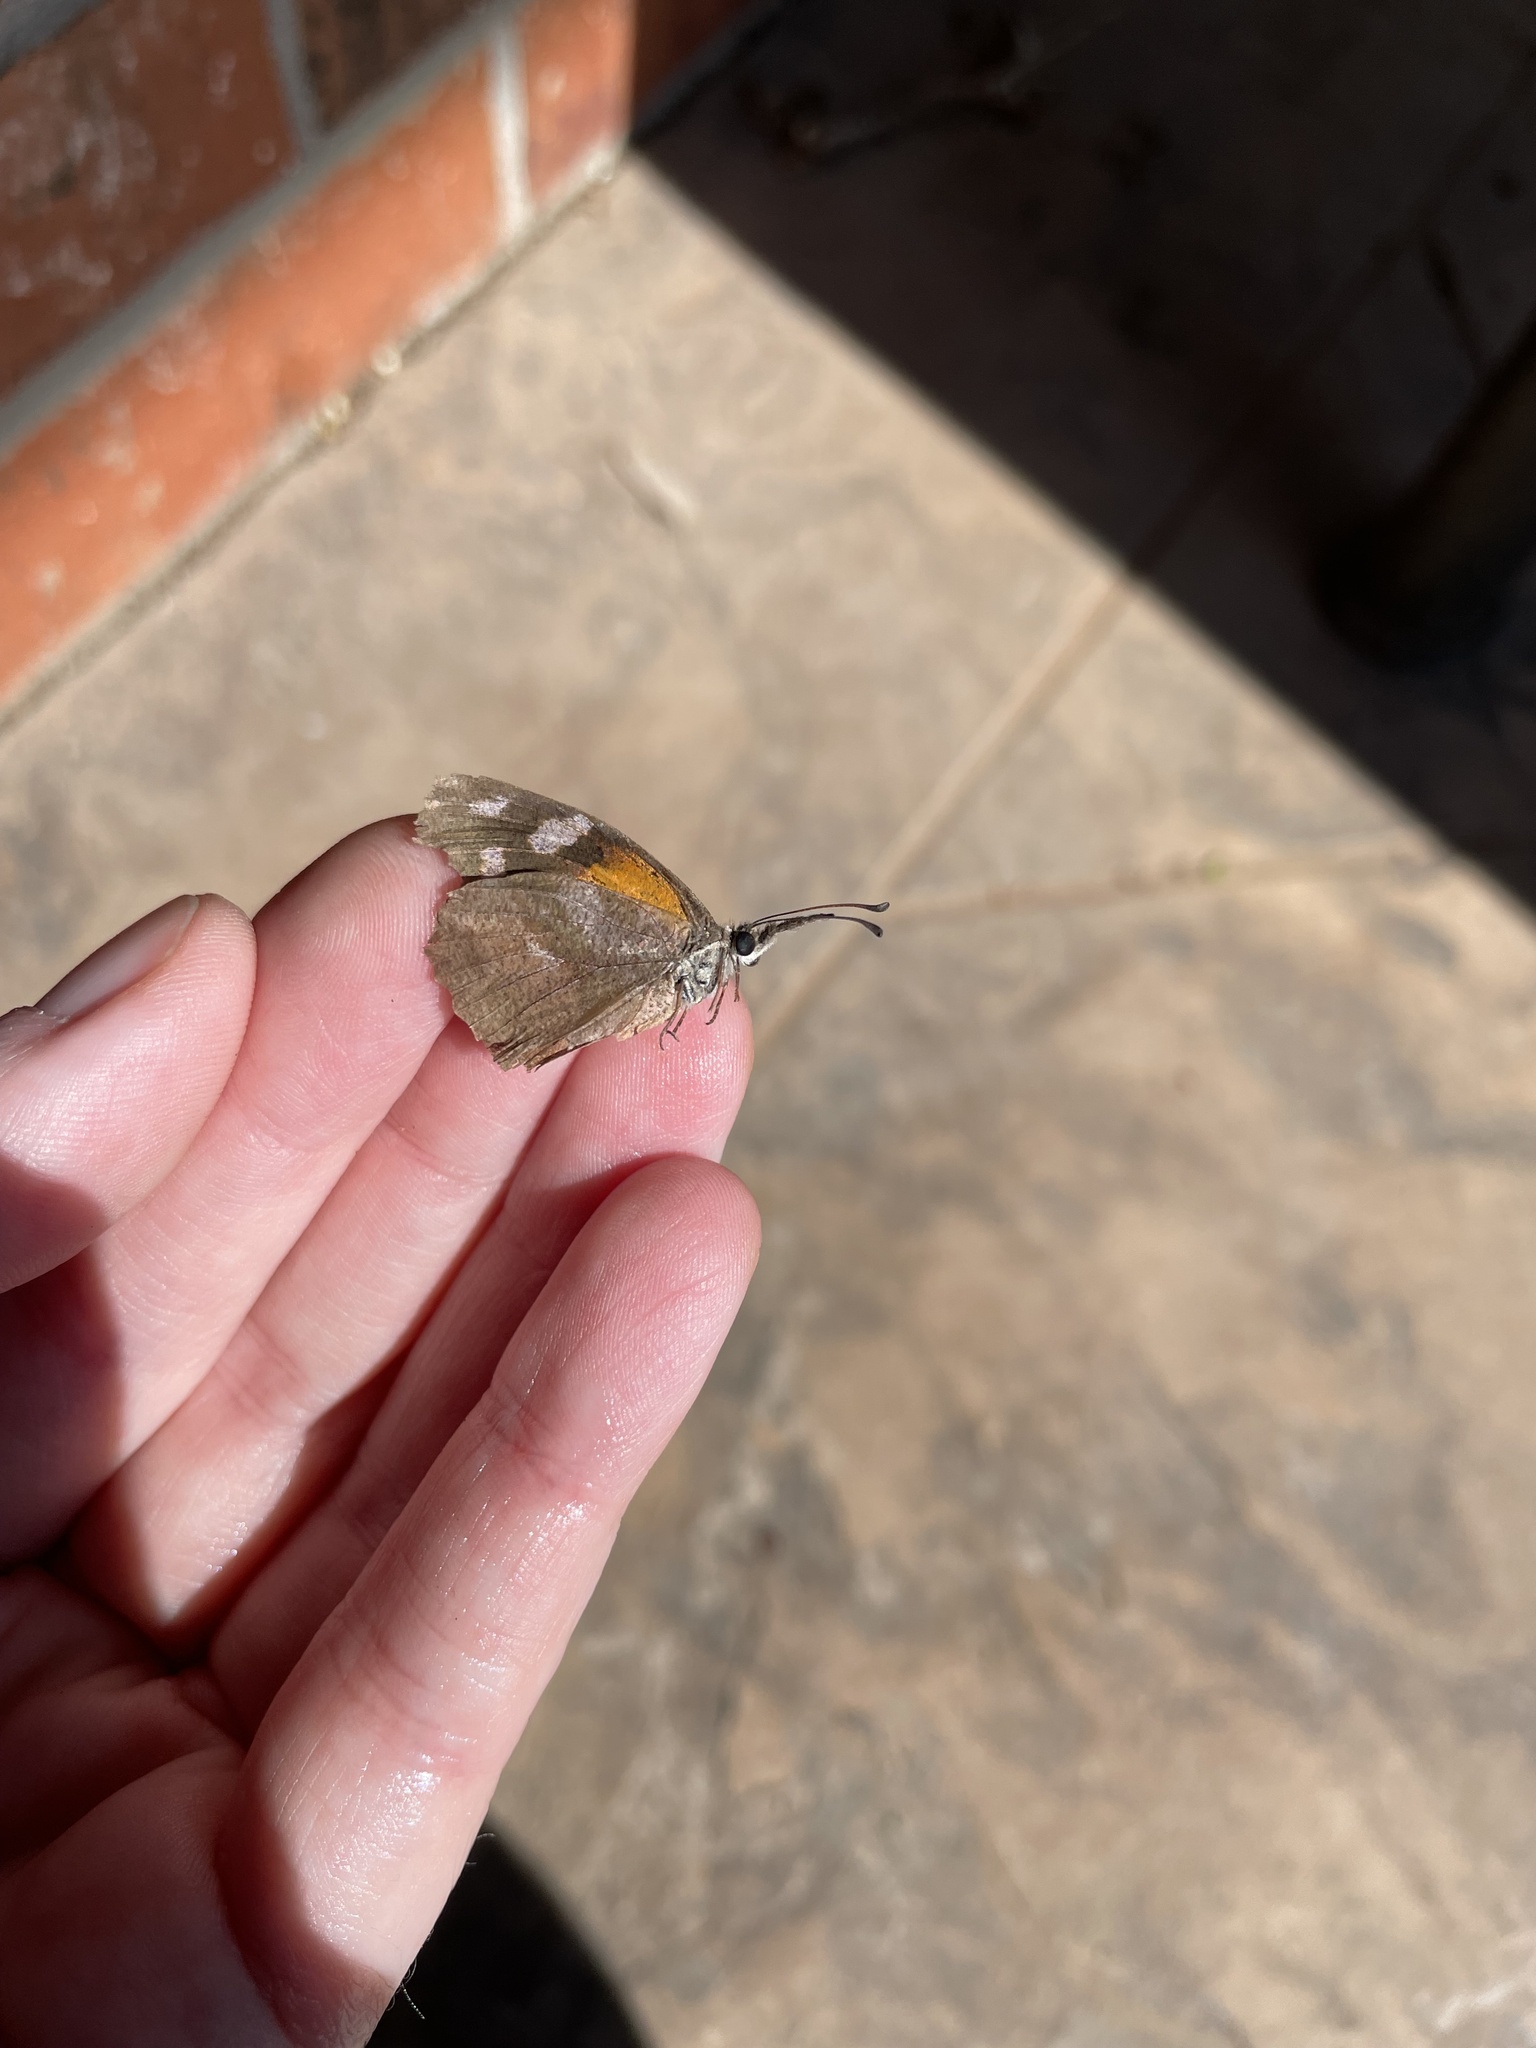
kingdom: Animalia
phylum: Arthropoda
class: Insecta
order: Lepidoptera
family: Nymphalidae
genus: Libytheana
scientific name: Libytheana carinenta
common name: American snout
